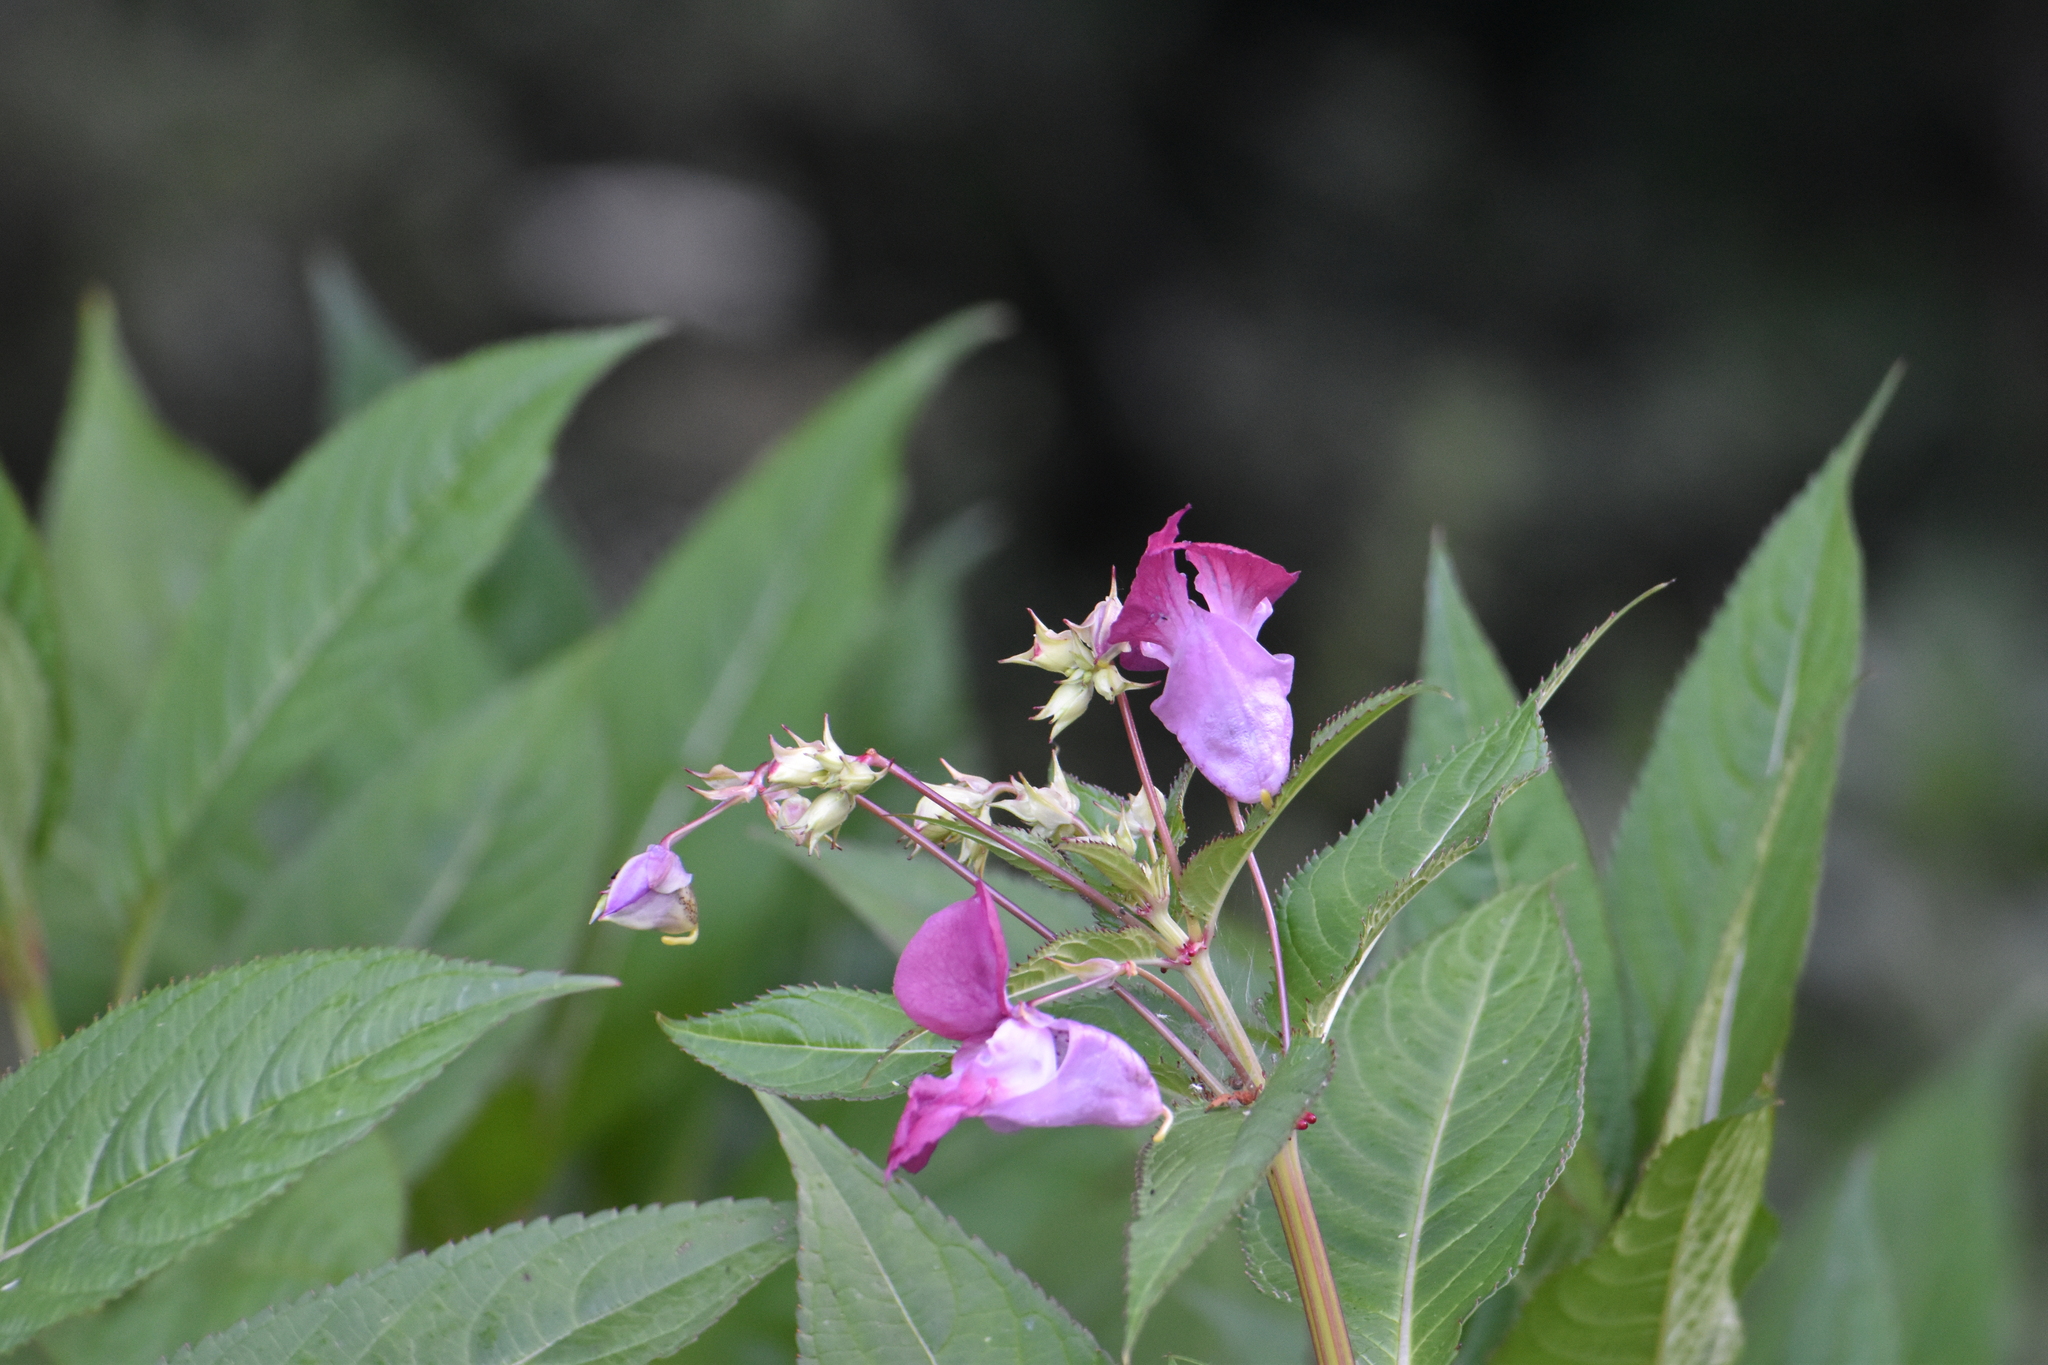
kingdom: Plantae
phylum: Tracheophyta
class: Magnoliopsida
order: Ericales
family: Balsaminaceae
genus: Impatiens
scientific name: Impatiens glandulifera
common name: Himalayan balsam
